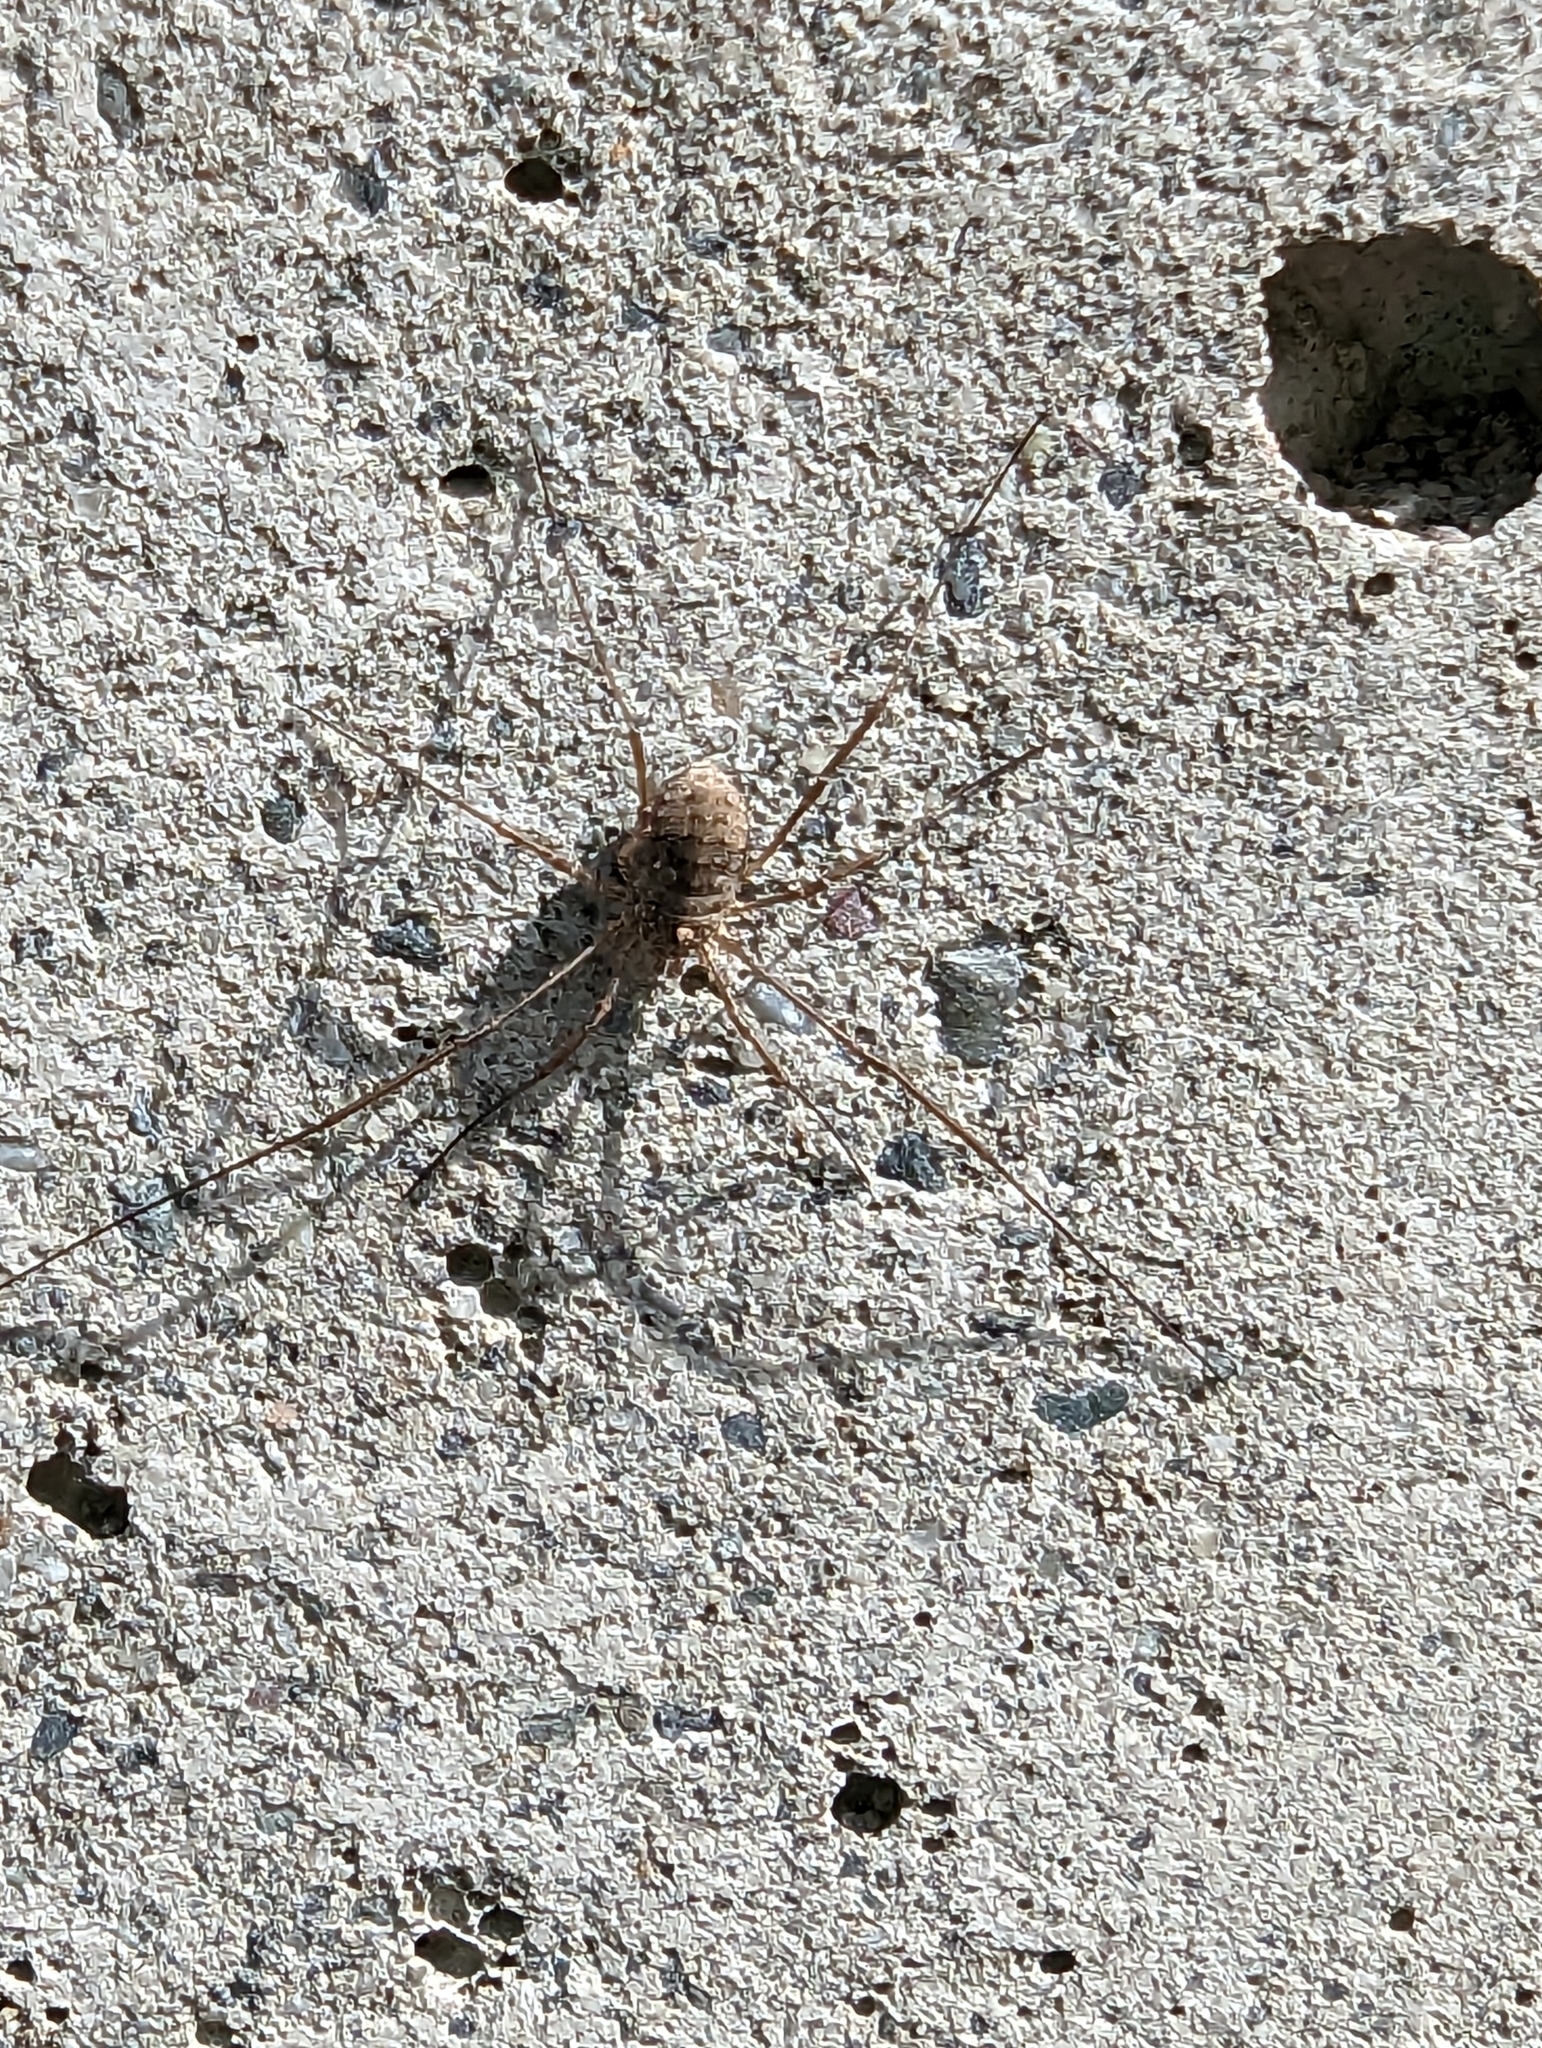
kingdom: Animalia
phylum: Arthropoda
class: Arachnida
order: Opiliones
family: Phalangiidae
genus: Phalangium
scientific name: Phalangium opilio
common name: Daddy longleg
